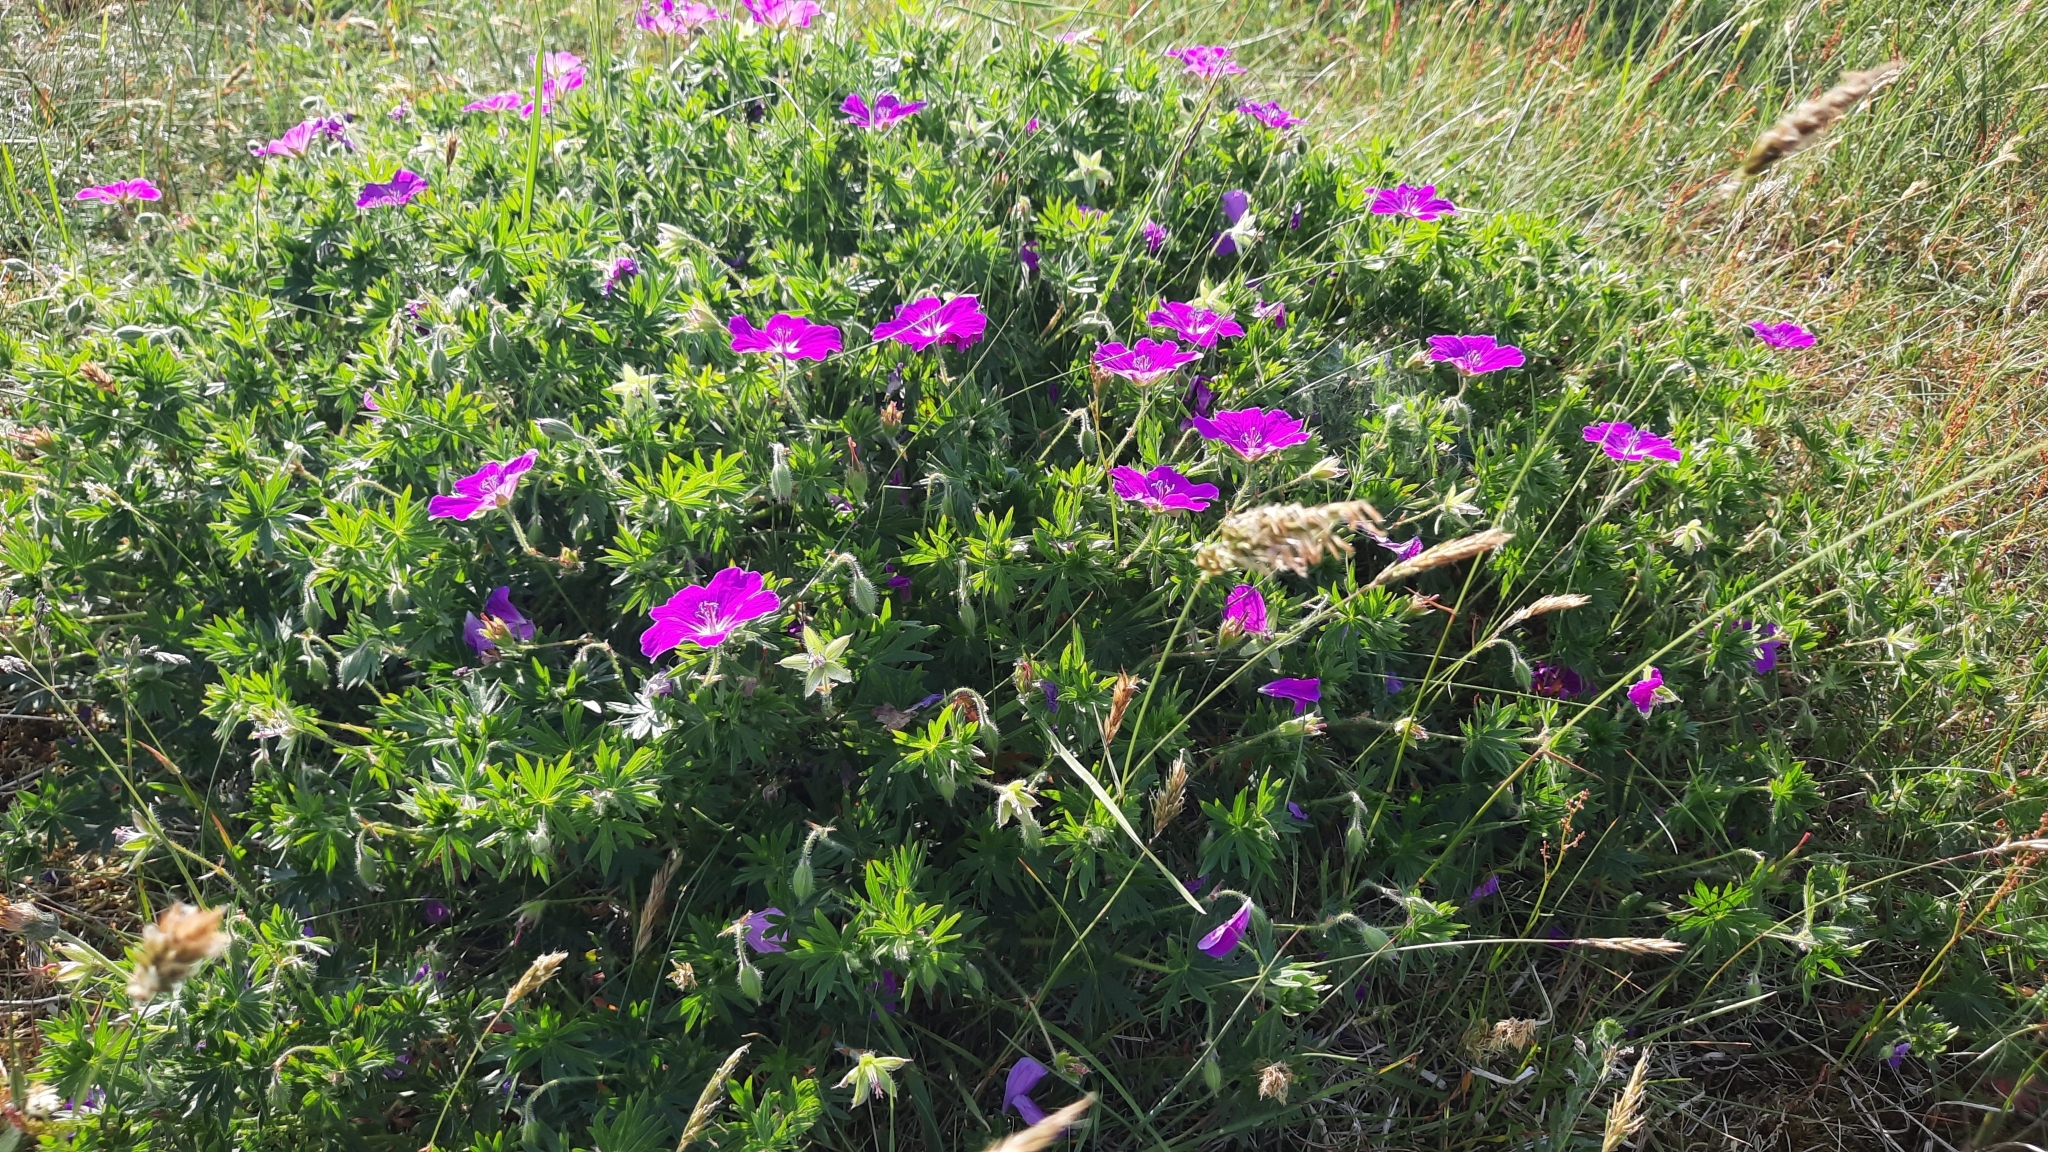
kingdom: Plantae
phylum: Tracheophyta
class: Magnoliopsida
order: Geraniales
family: Geraniaceae
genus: Geranium
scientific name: Geranium sanguineum
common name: Bloody crane's-bill
